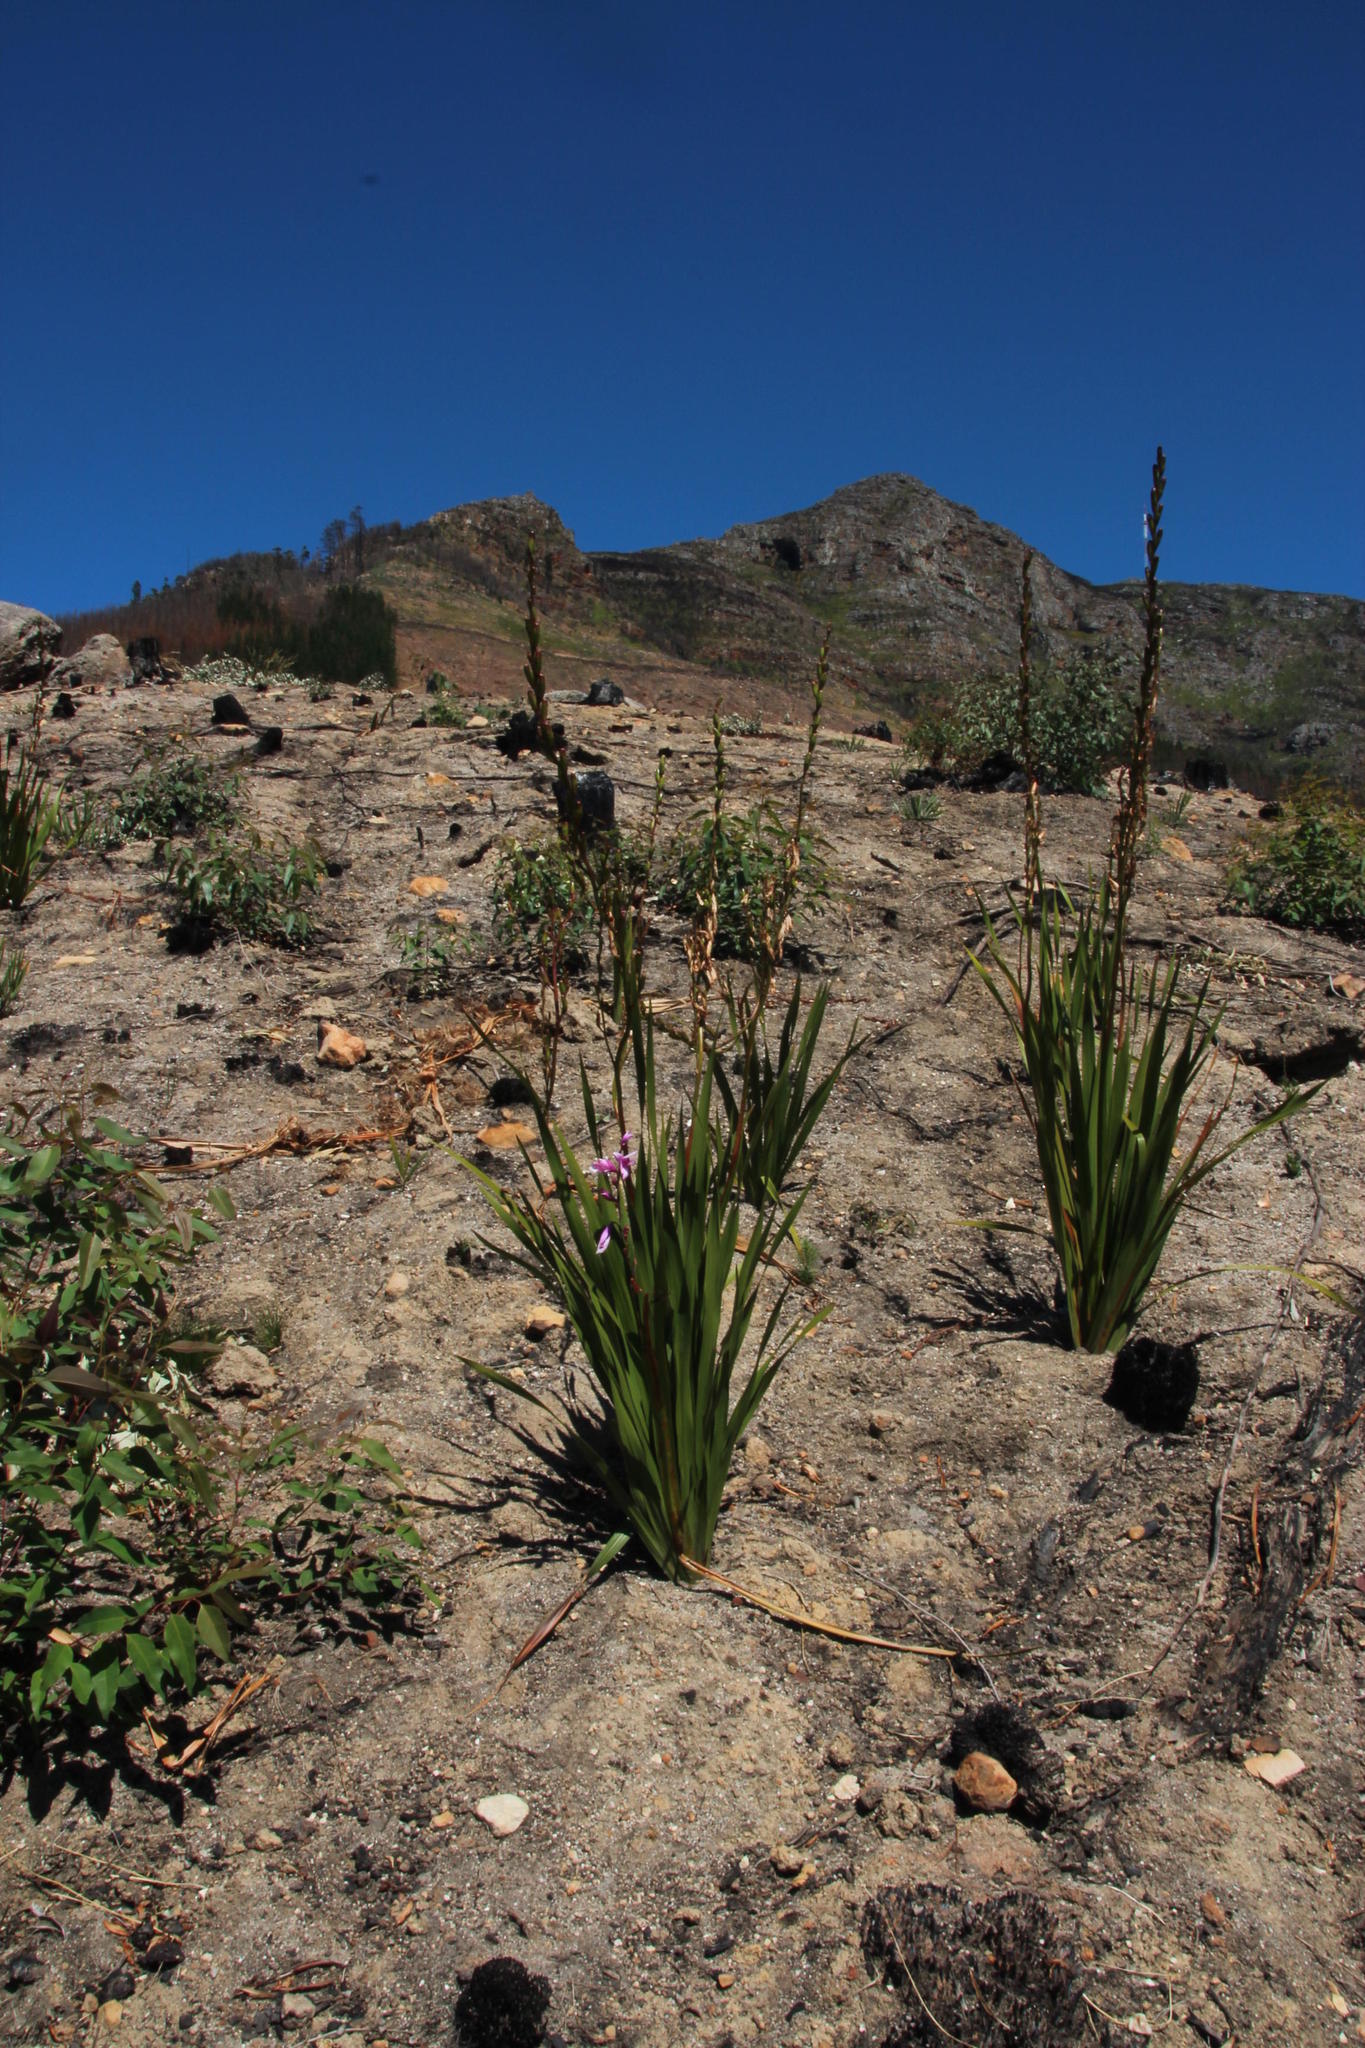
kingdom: Plantae
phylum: Tracheophyta
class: Liliopsida
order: Asparagales
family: Iridaceae
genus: Watsonia
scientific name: Watsonia borbonica
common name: Bugle-lily
